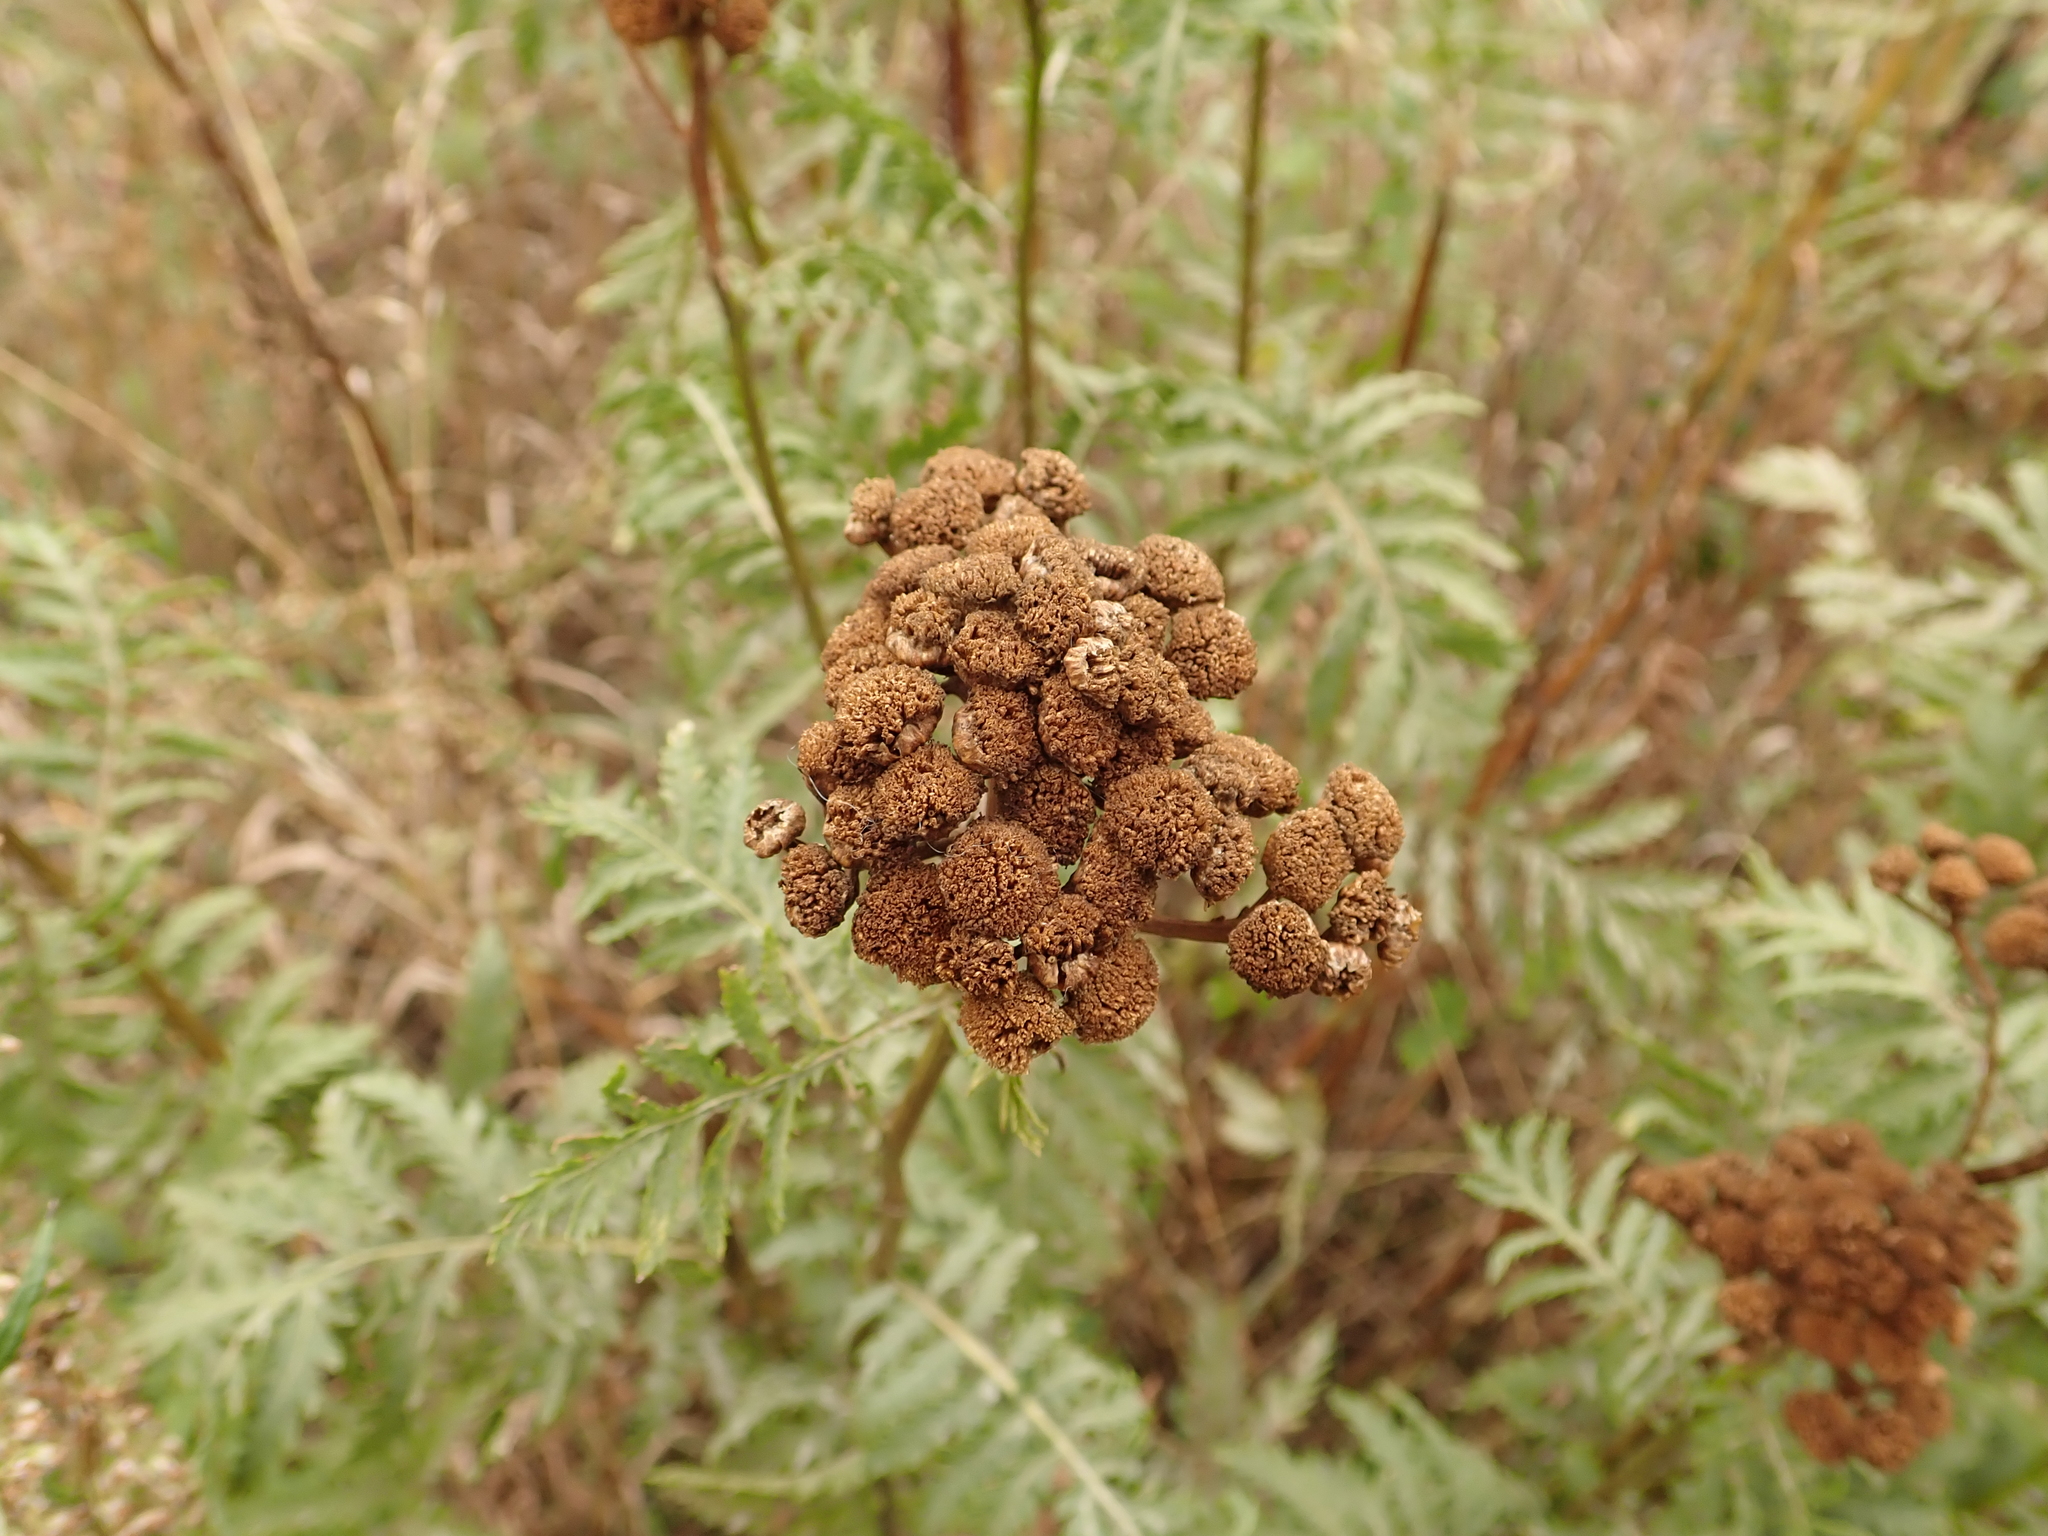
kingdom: Plantae
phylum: Tracheophyta
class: Magnoliopsida
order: Asterales
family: Asteraceae
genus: Tanacetum
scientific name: Tanacetum vulgare
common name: Common tansy
